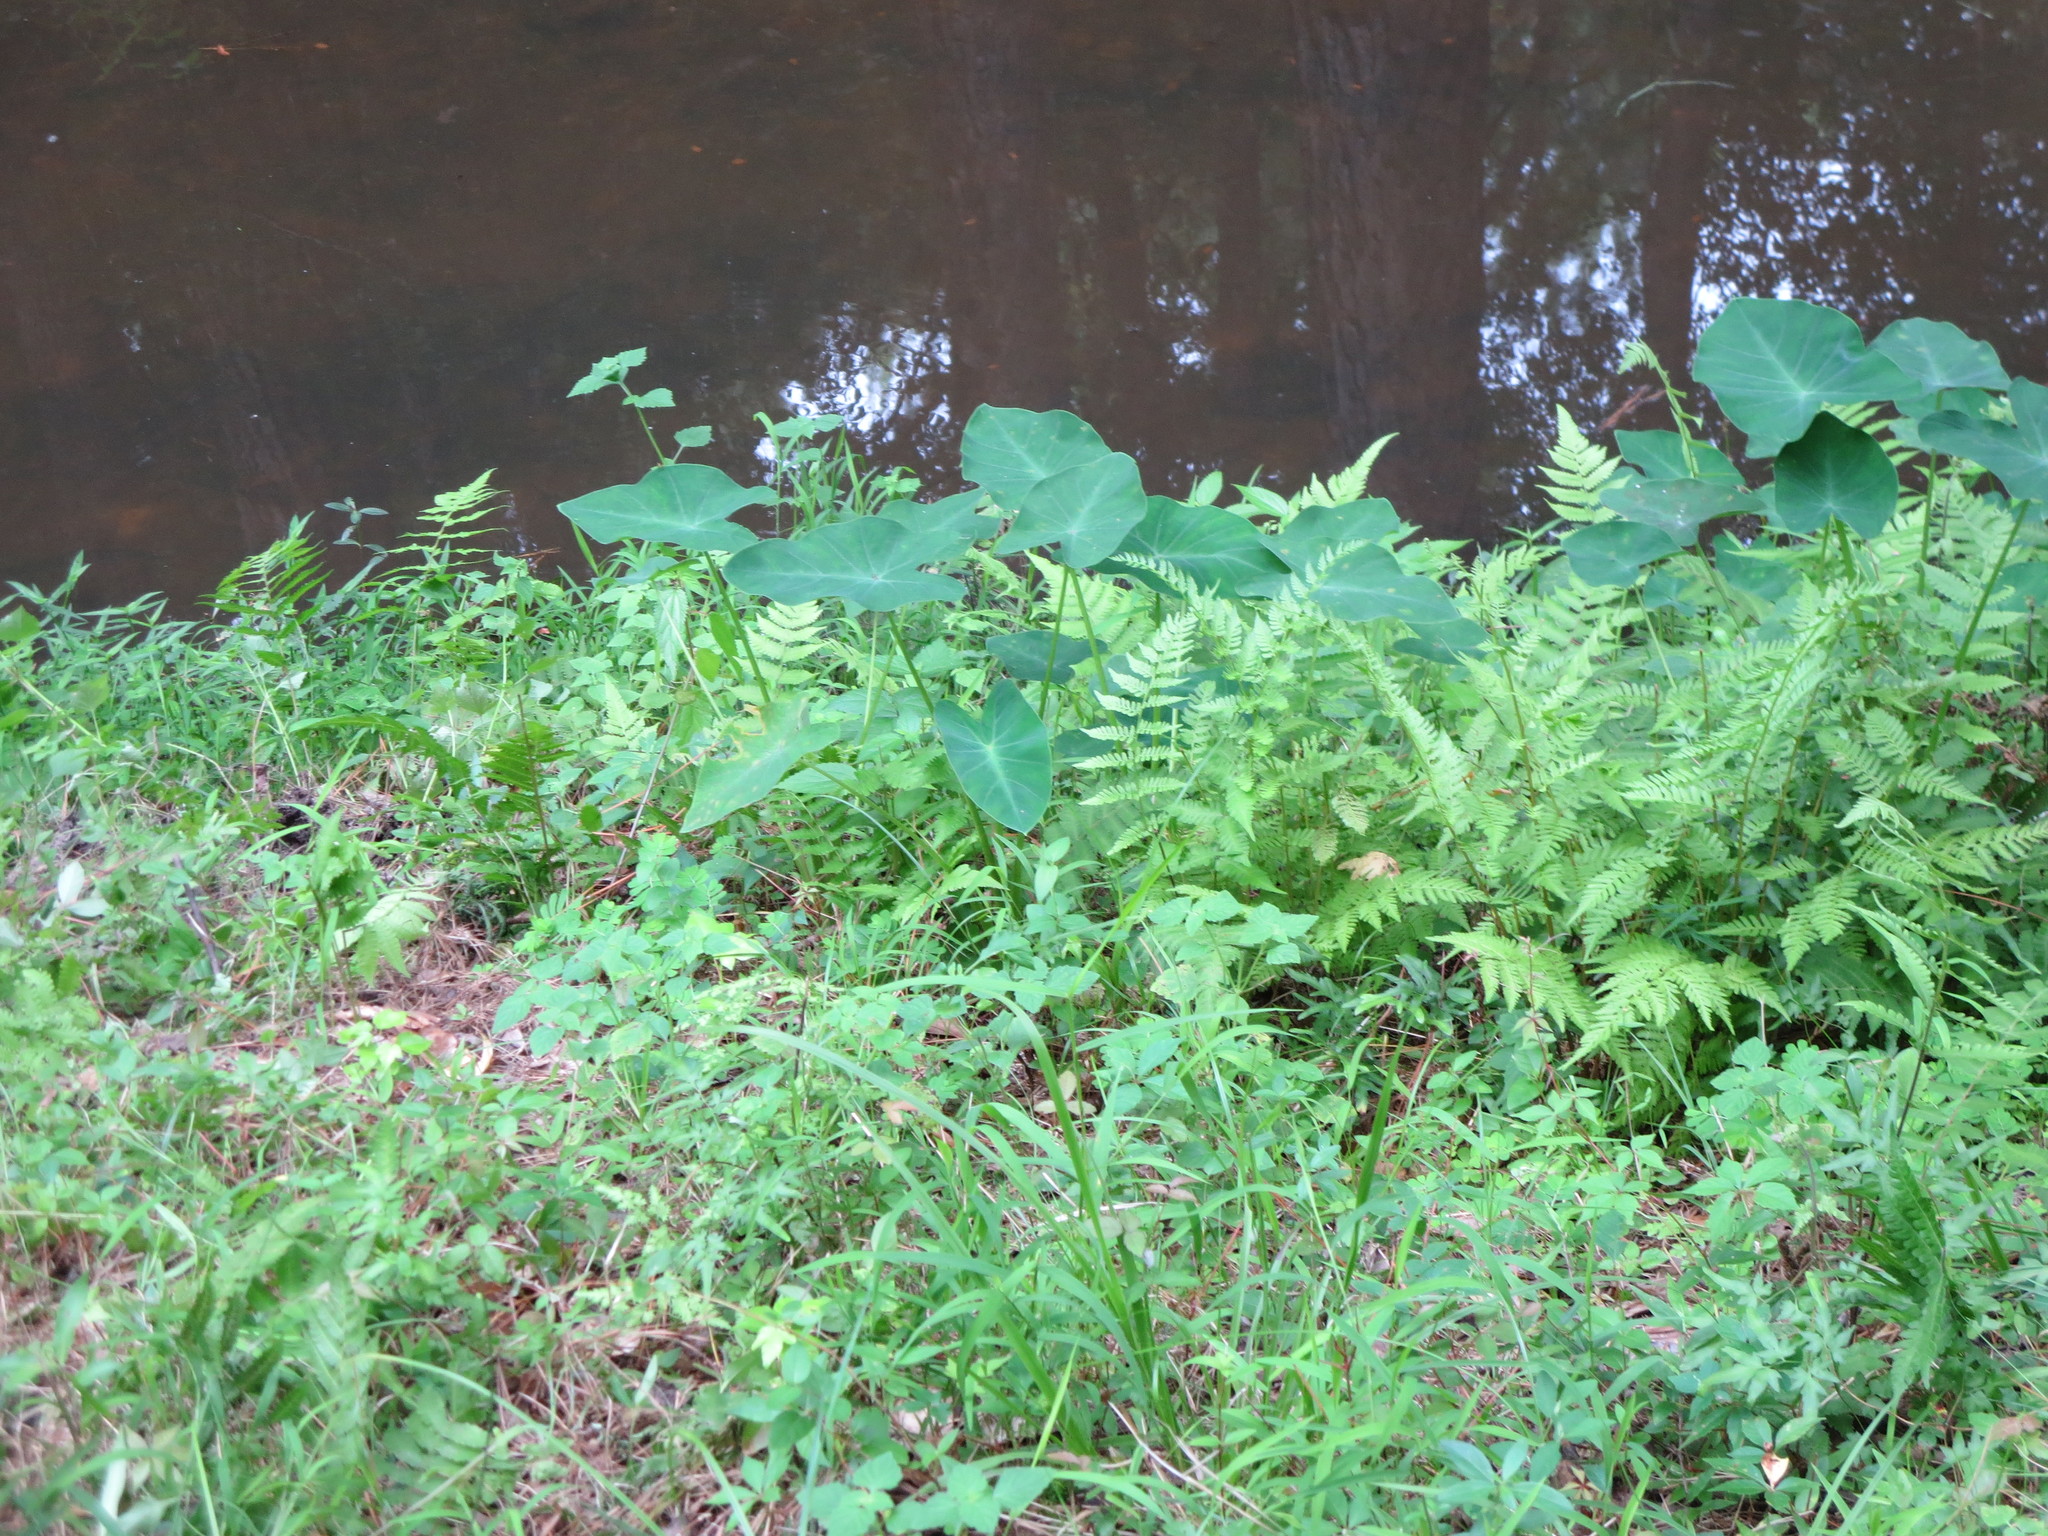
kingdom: Plantae
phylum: Tracheophyta
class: Liliopsida
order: Alismatales
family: Araceae
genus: Colocasia
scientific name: Colocasia esculenta
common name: Taro
